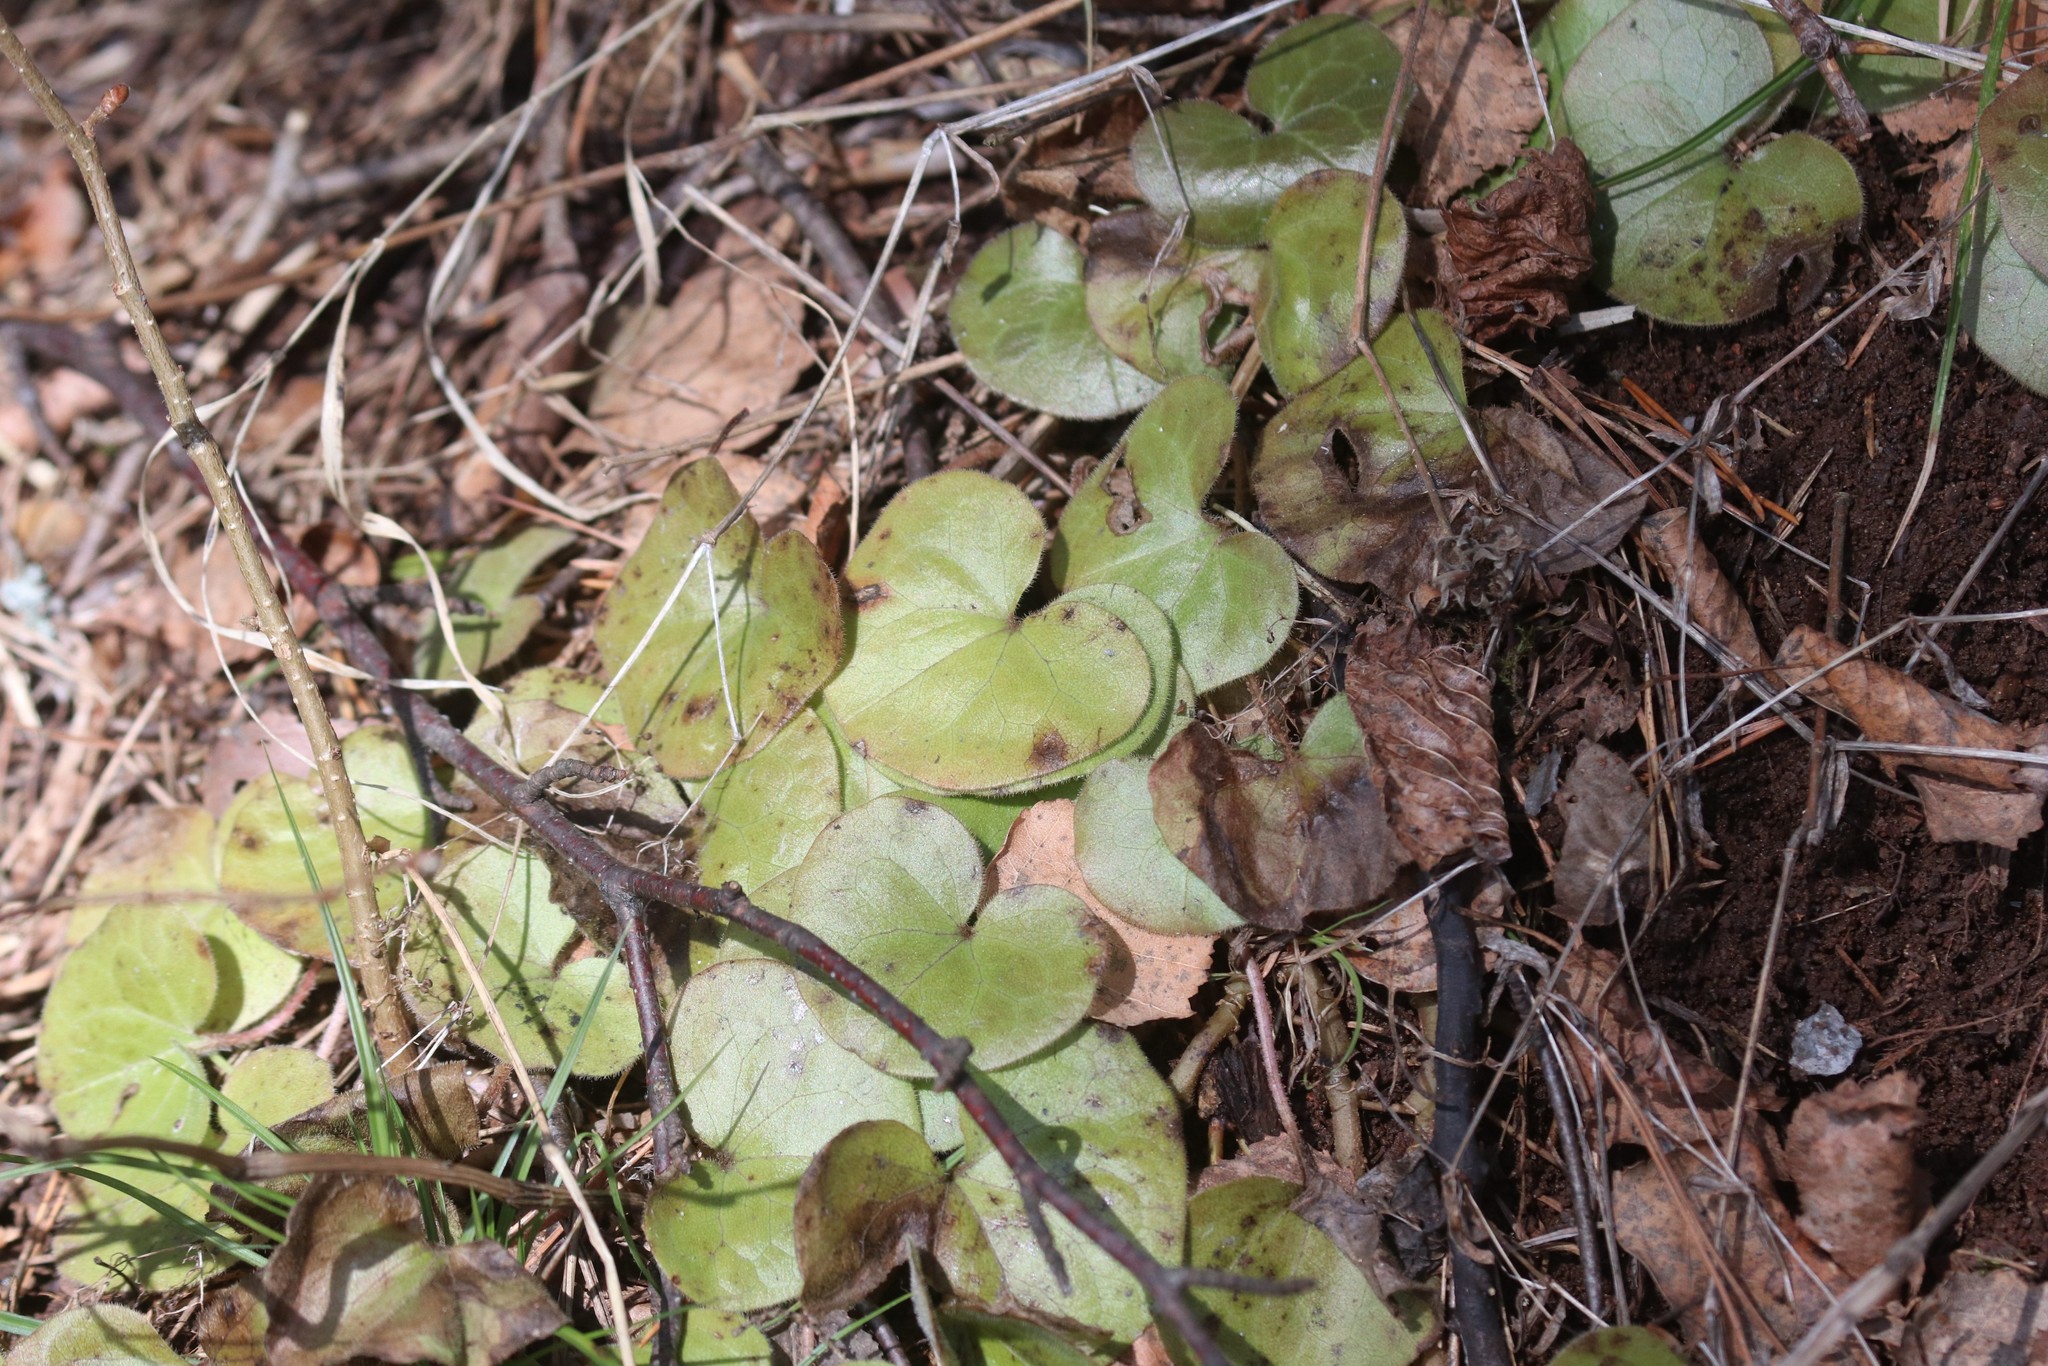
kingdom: Plantae
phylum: Tracheophyta
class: Magnoliopsida
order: Piperales
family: Aristolochiaceae
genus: Asarum
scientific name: Asarum europaeum
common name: Asarabacca
